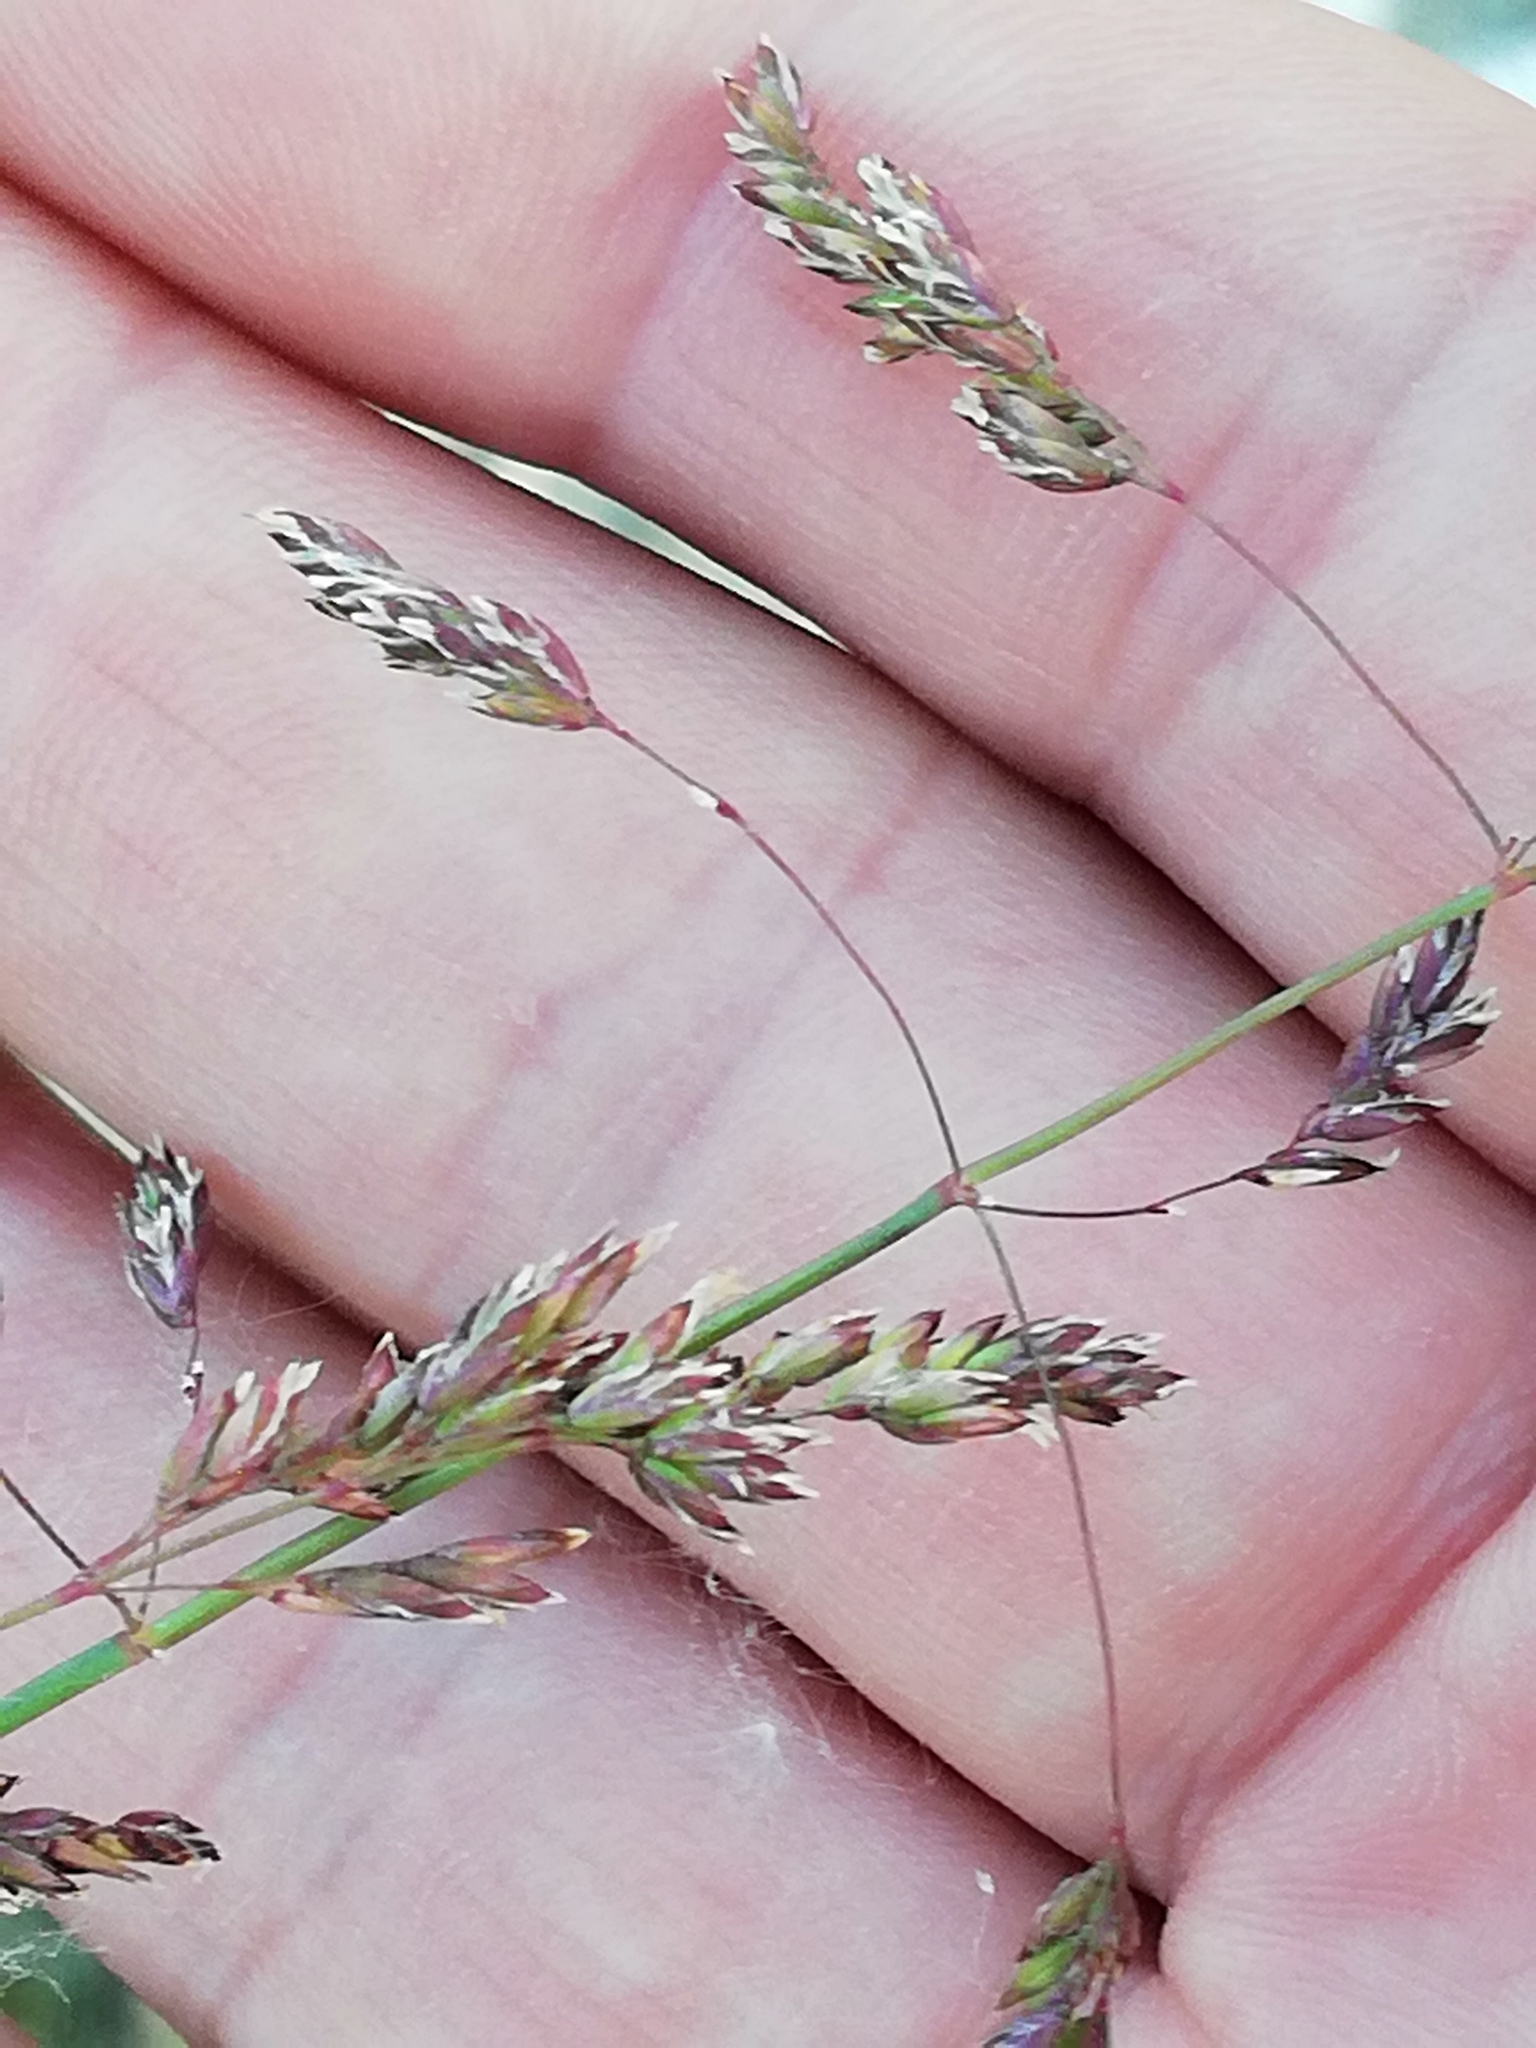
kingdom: Plantae
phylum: Tracheophyta
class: Liliopsida
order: Poales
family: Poaceae
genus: Poa
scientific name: Poa pratensis
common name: Kentucky bluegrass
